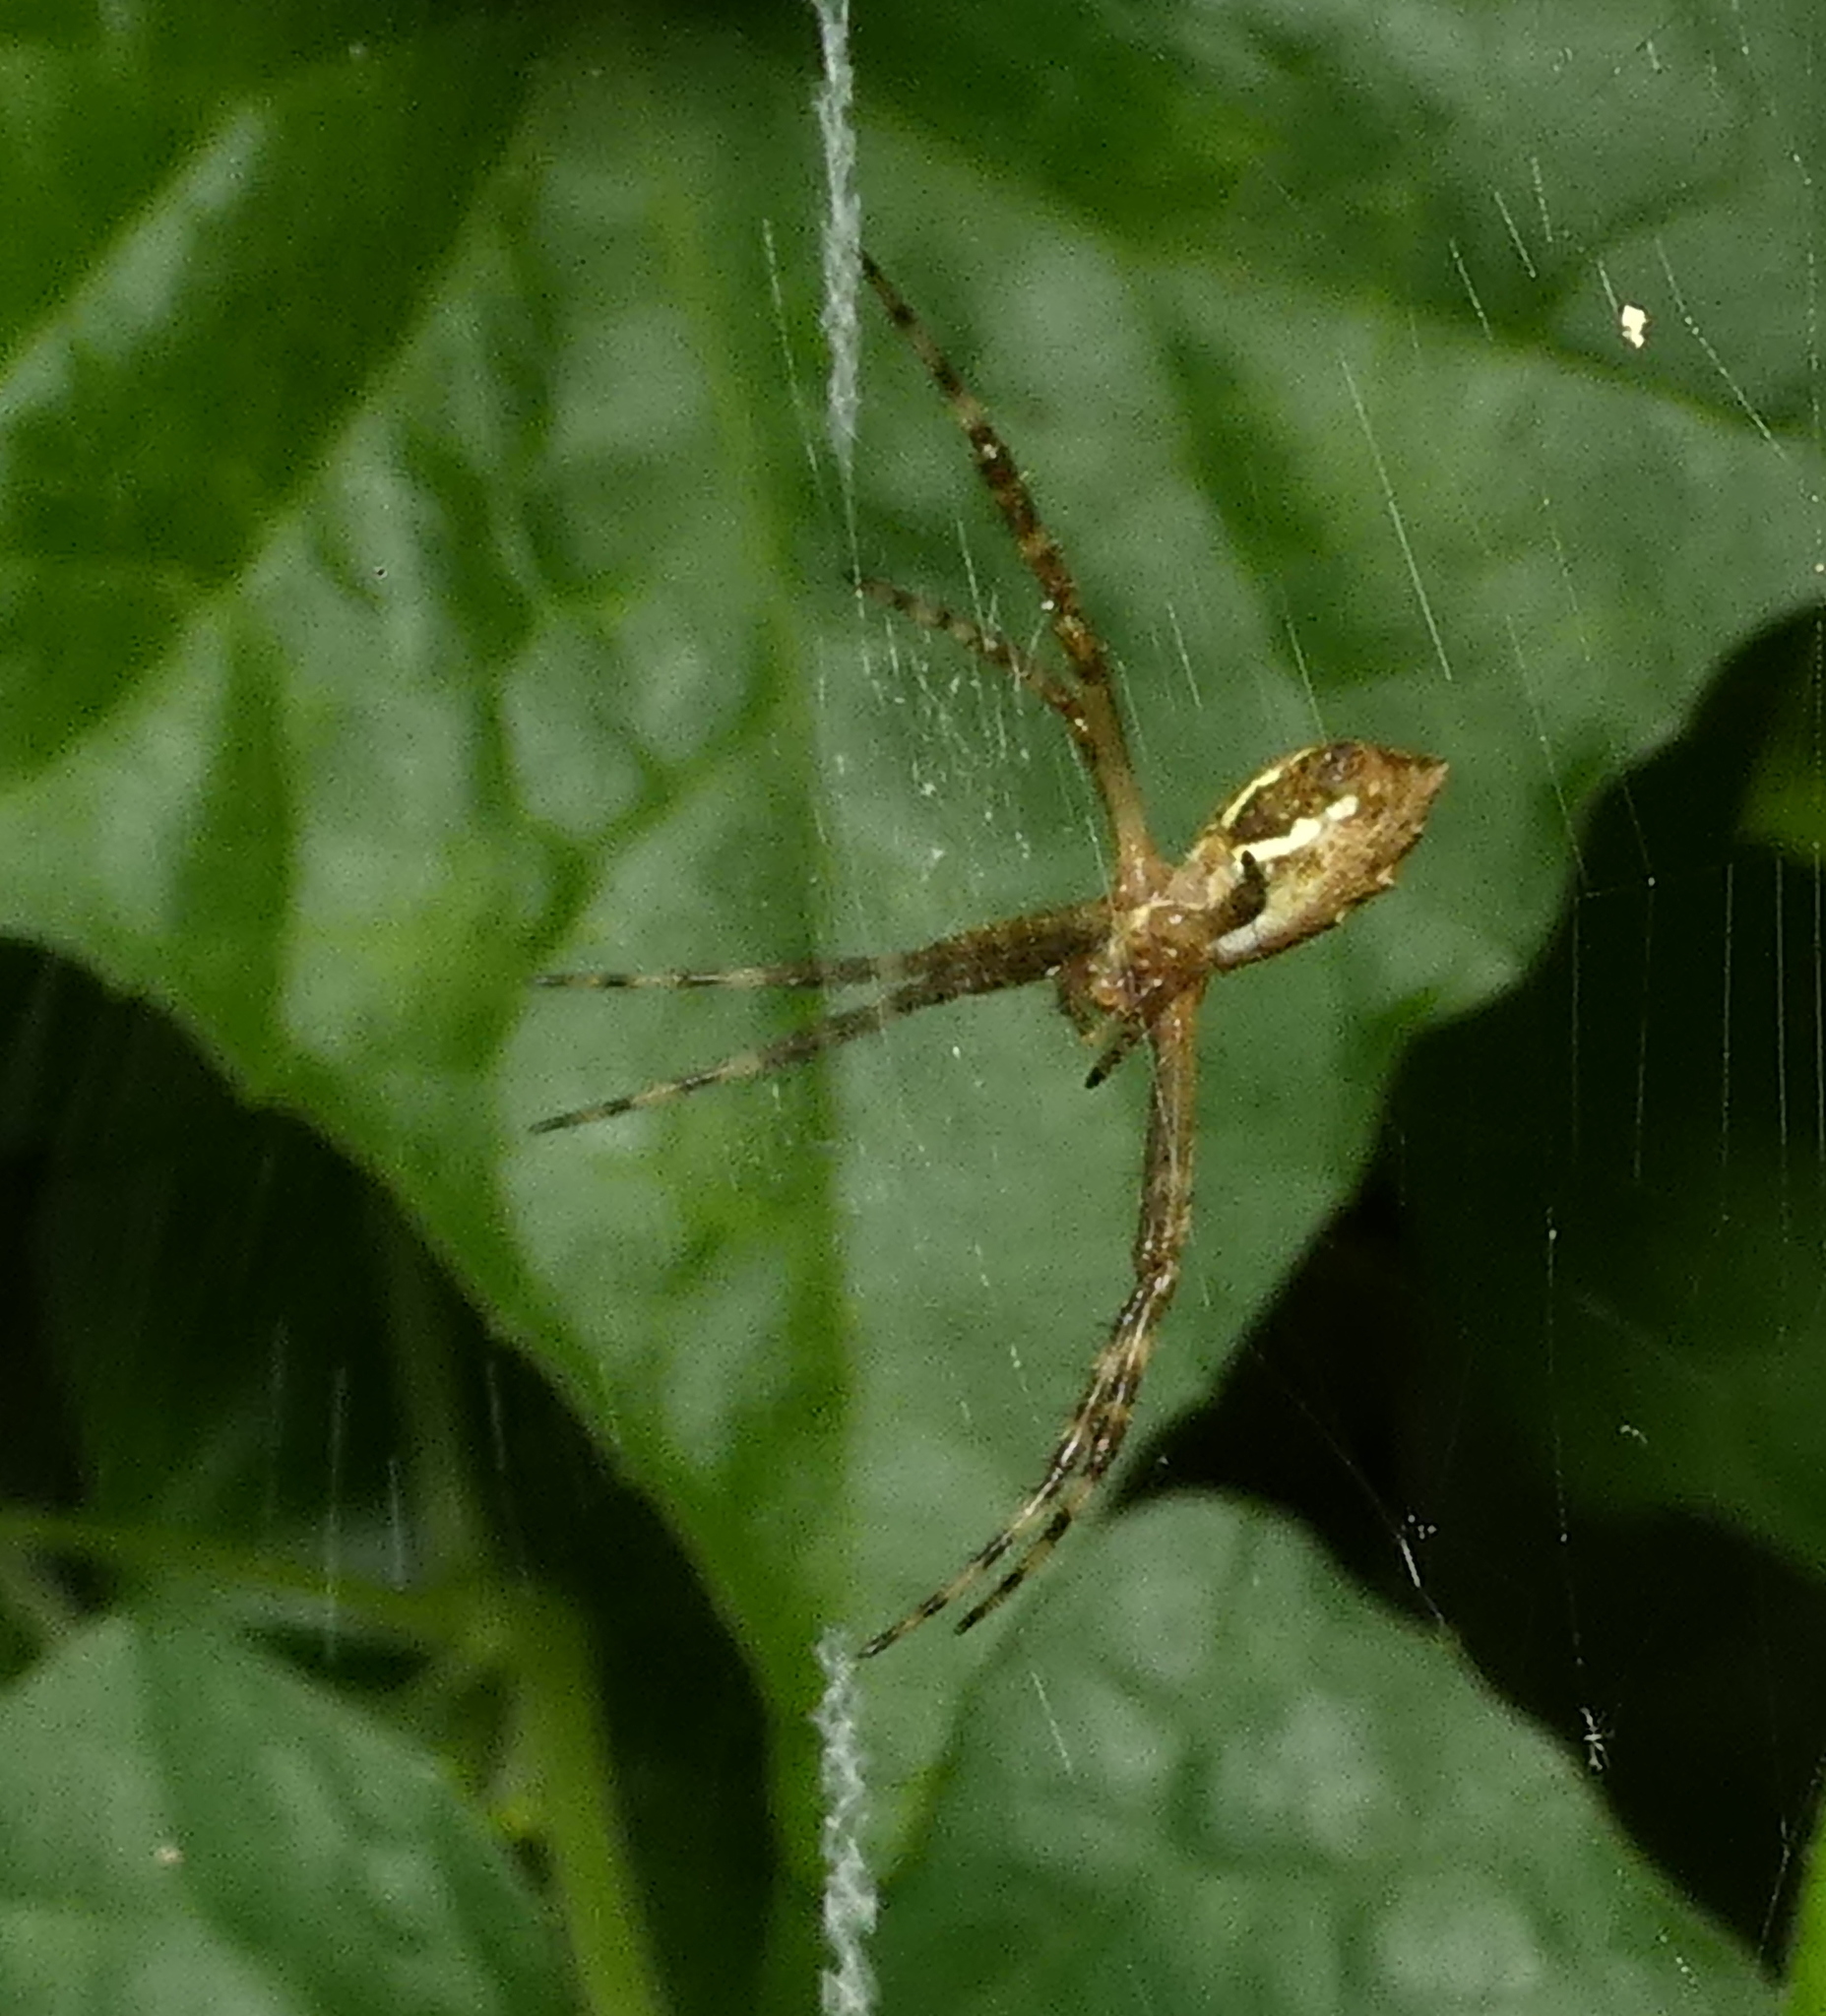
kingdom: Animalia
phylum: Arthropoda
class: Arachnida
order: Araneae
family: Araneidae
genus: Argiope
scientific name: Argiope argentata
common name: Orb weavers
